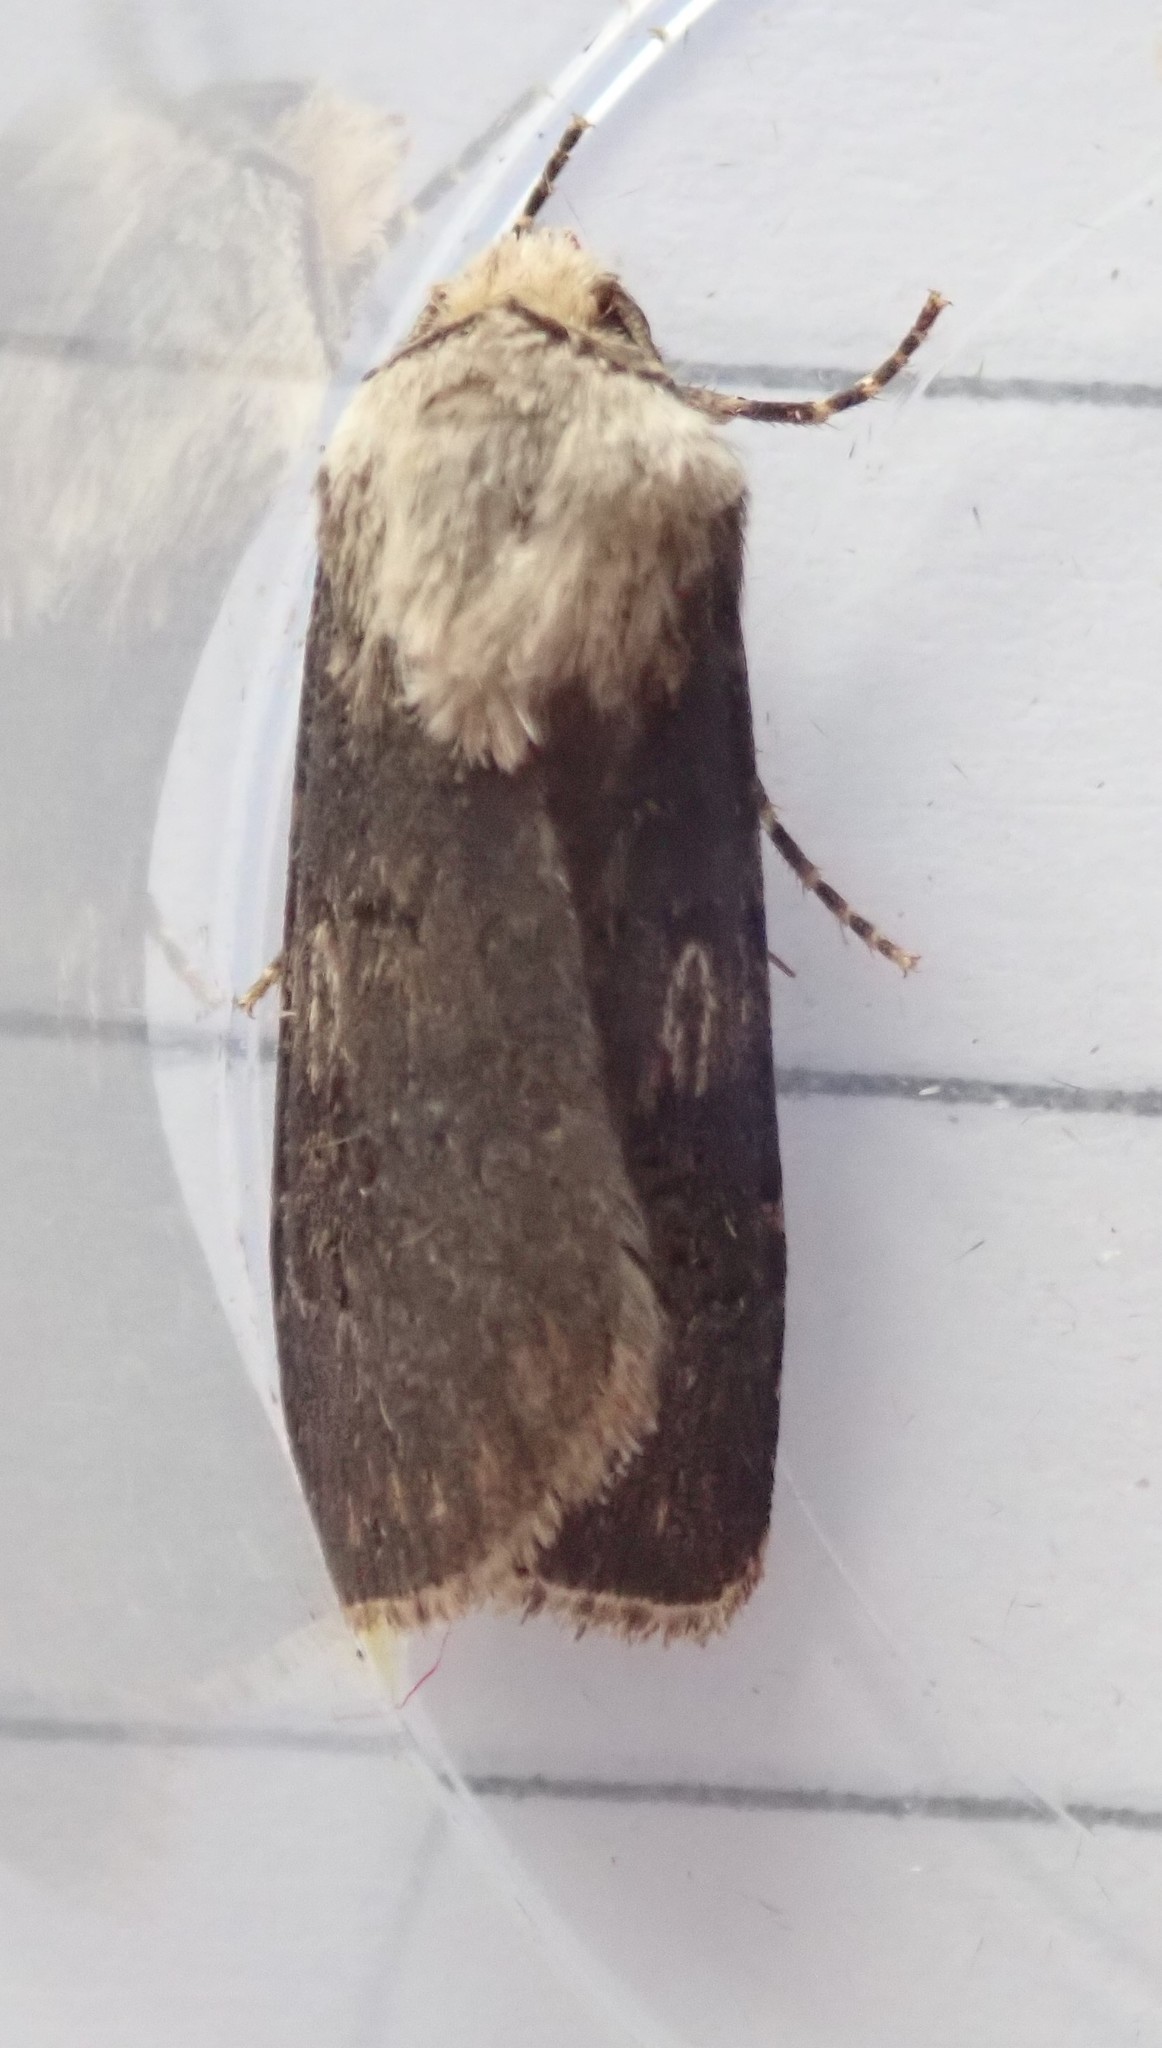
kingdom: Animalia
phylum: Arthropoda
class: Insecta
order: Lepidoptera
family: Noctuidae
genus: Agrotis
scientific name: Agrotis puta
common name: Shuttle-shaped dart
